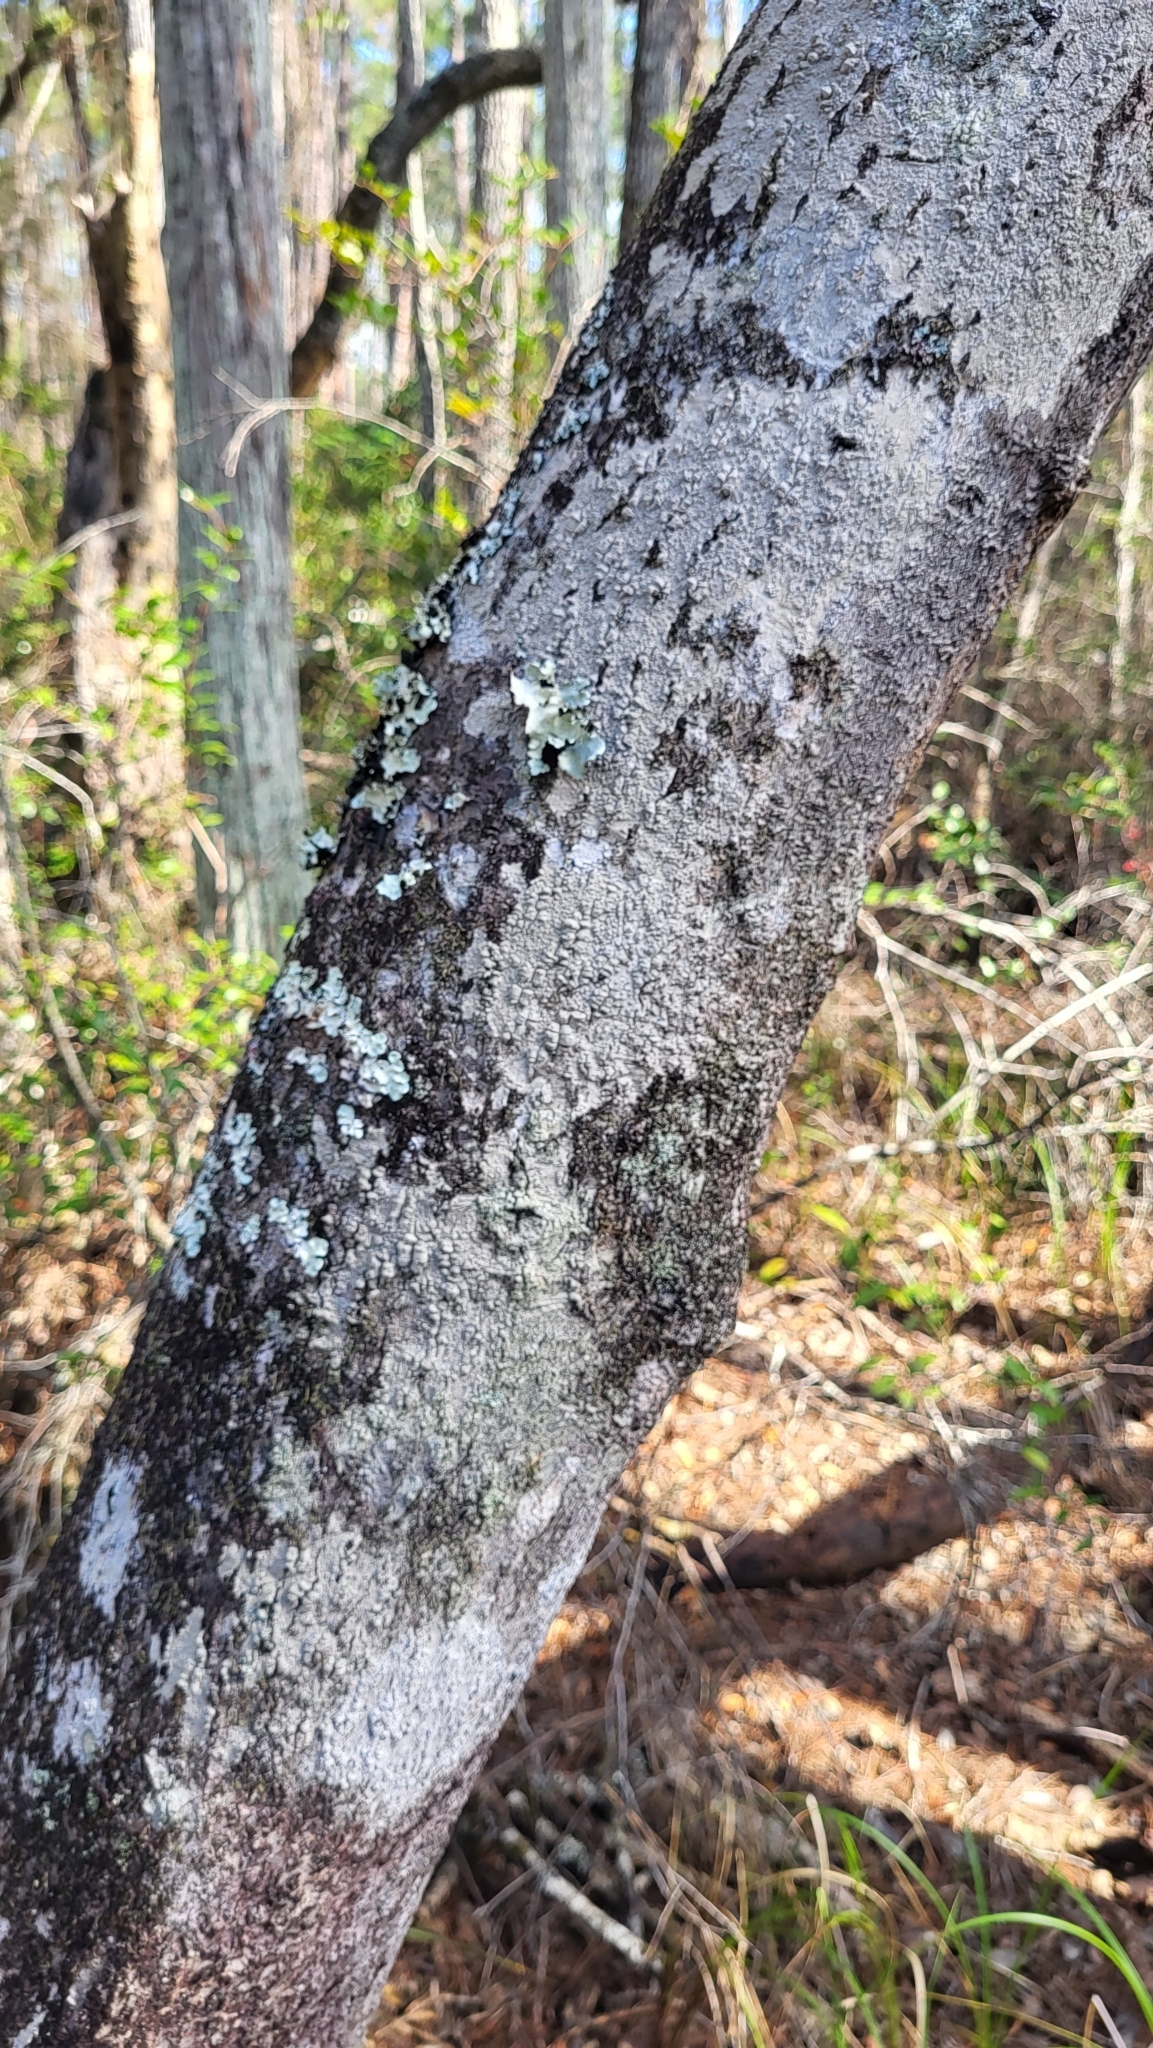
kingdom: Plantae
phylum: Tracheophyta
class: Magnoliopsida
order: Aquifoliales
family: Aquifoliaceae
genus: Ilex
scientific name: Ilex myrtifolia
